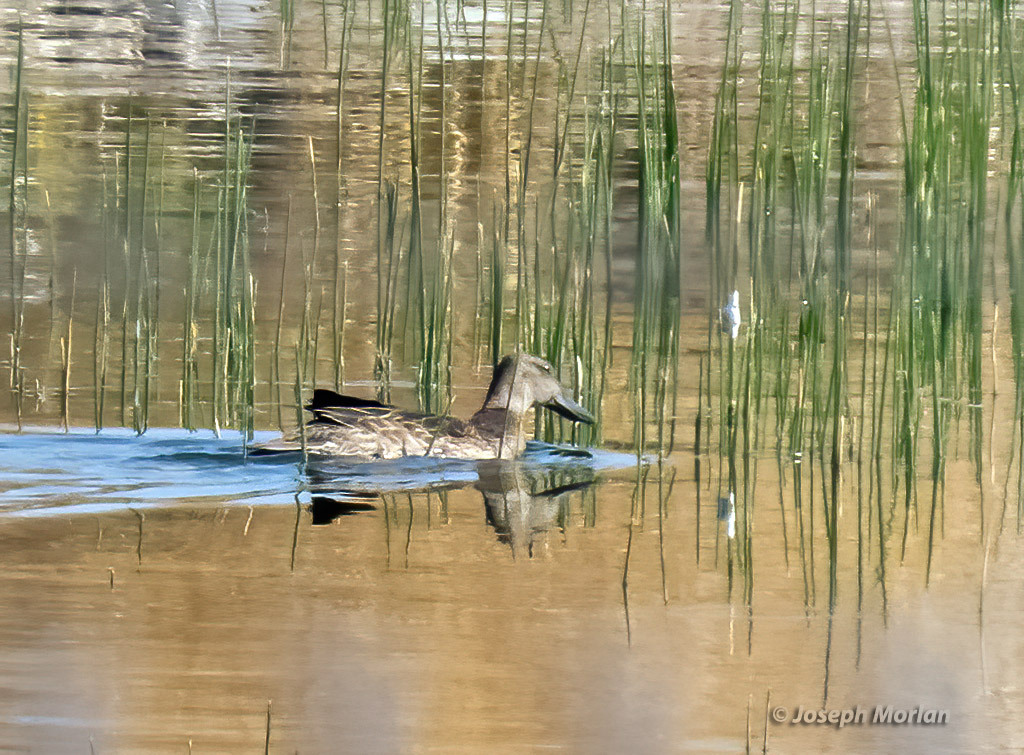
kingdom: Animalia
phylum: Chordata
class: Aves
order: Anseriformes
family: Anatidae
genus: Spatula
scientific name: Spatula cyanoptera
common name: Cinnamon teal
